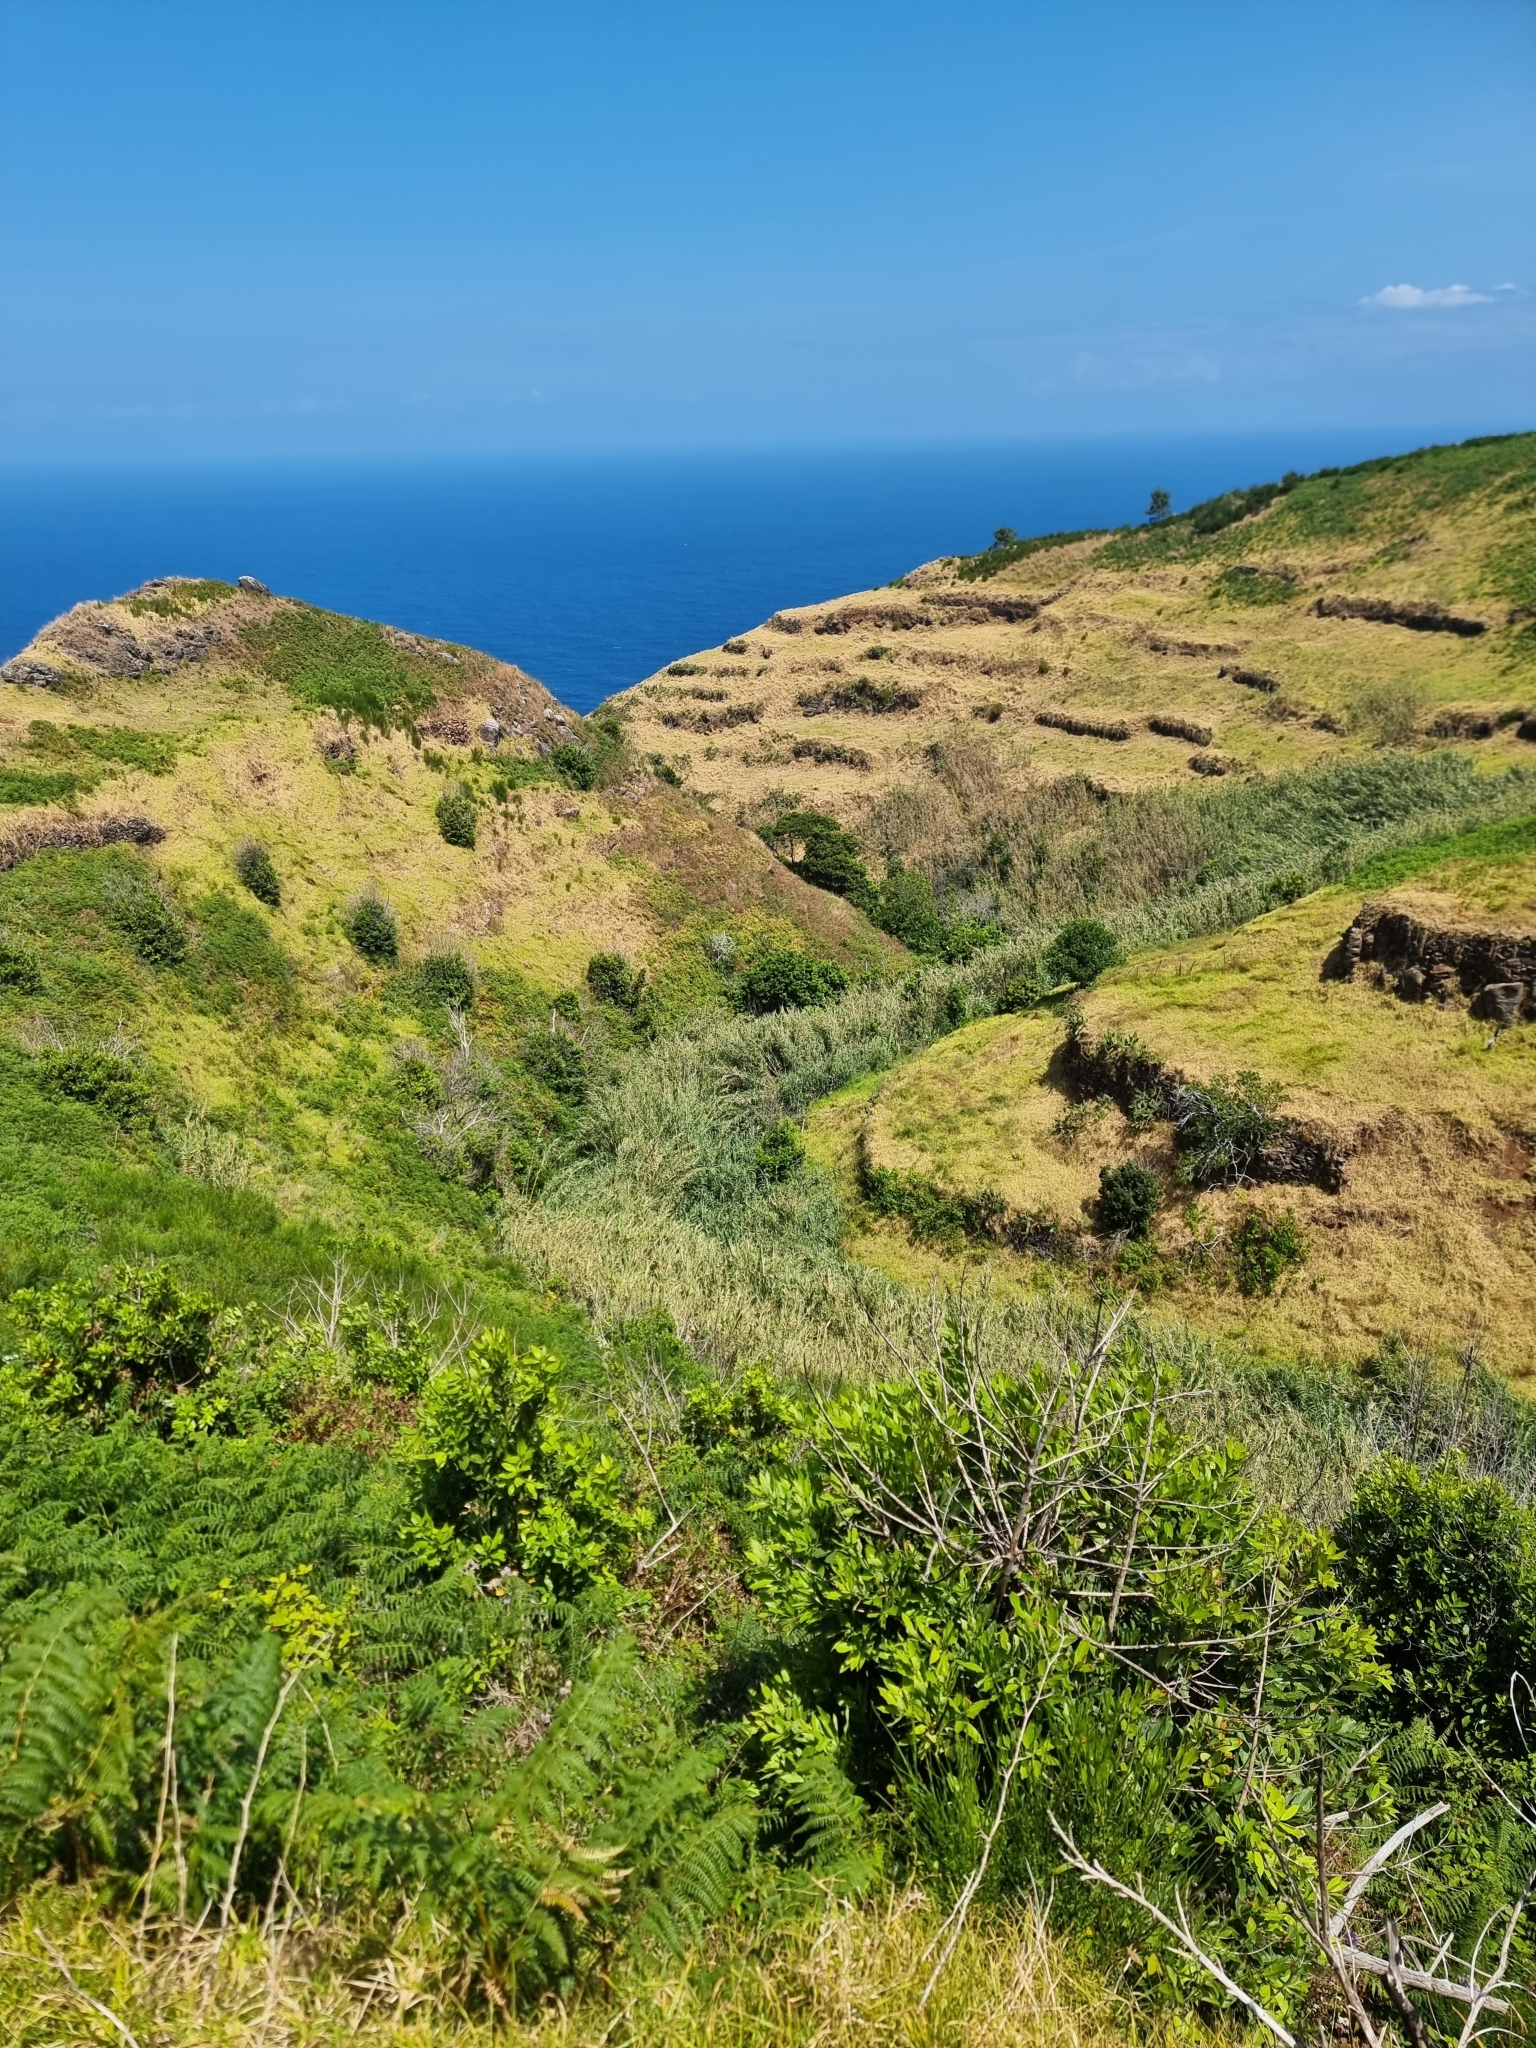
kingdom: Plantae
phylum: Tracheophyta
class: Liliopsida
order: Poales
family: Poaceae
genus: Arundo
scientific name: Arundo donax
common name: Giant reed
